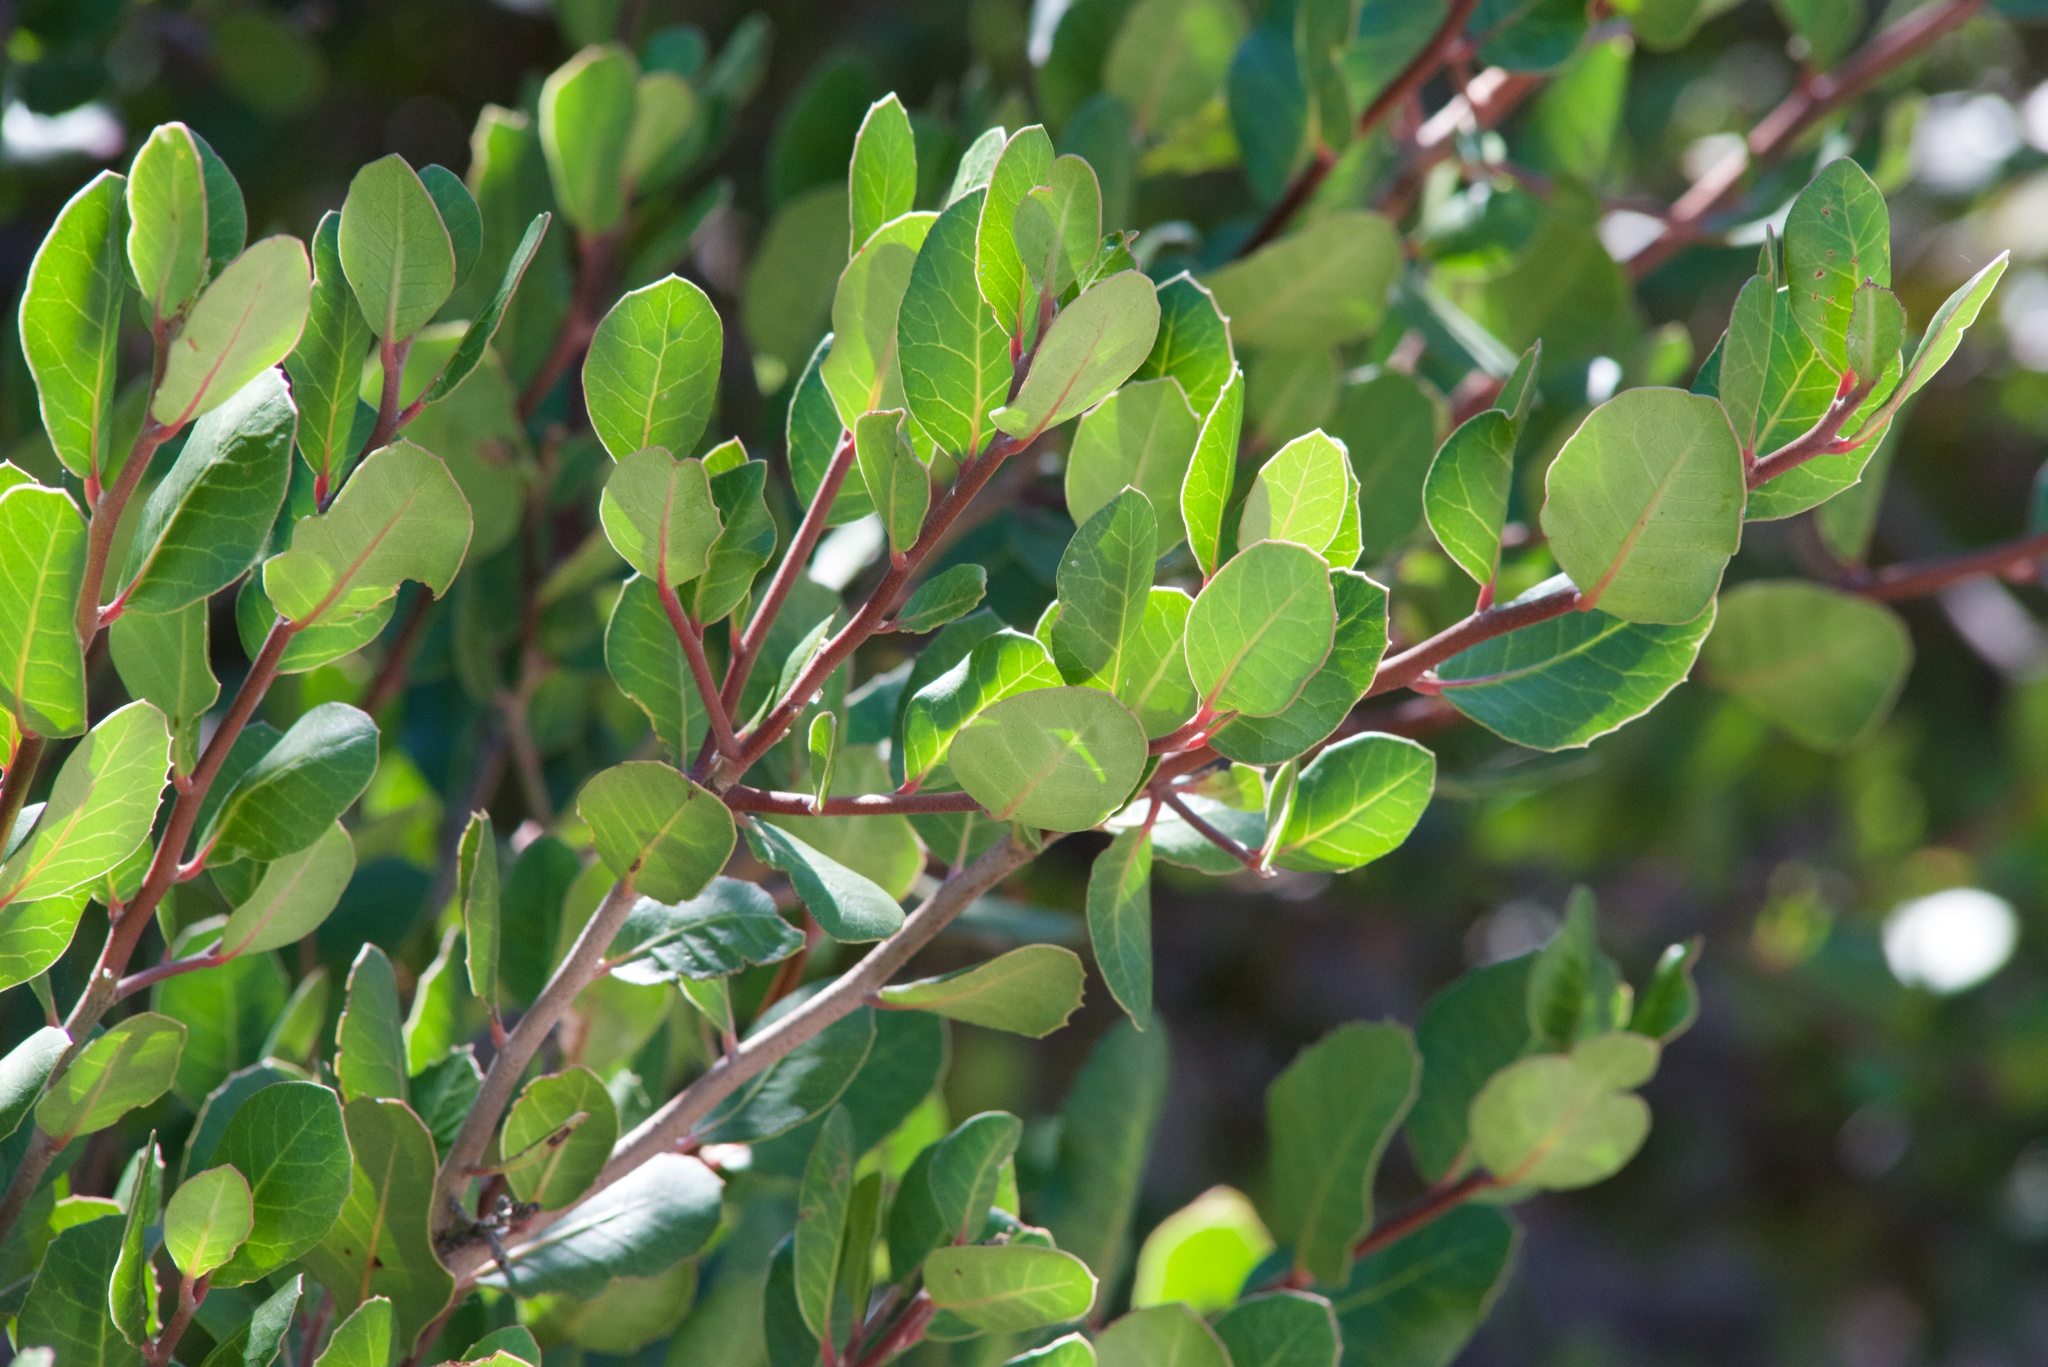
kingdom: Plantae
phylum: Tracheophyta
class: Magnoliopsida
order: Sapindales
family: Anacardiaceae
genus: Rhus
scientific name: Rhus integrifolia
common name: Lemonade sumac
